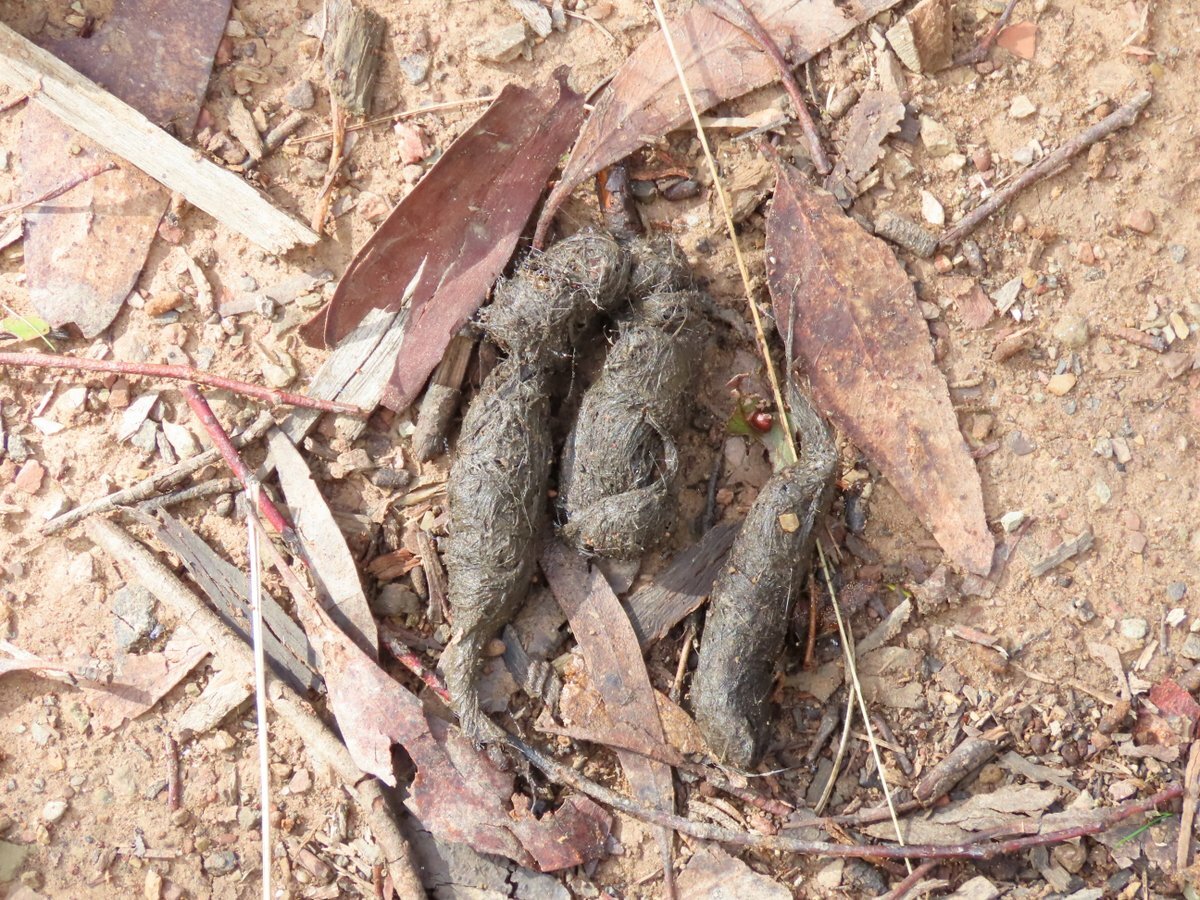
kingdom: Animalia
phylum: Chordata
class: Mammalia
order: Carnivora
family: Canidae
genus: Vulpes
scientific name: Vulpes vulpes
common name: Red fox
